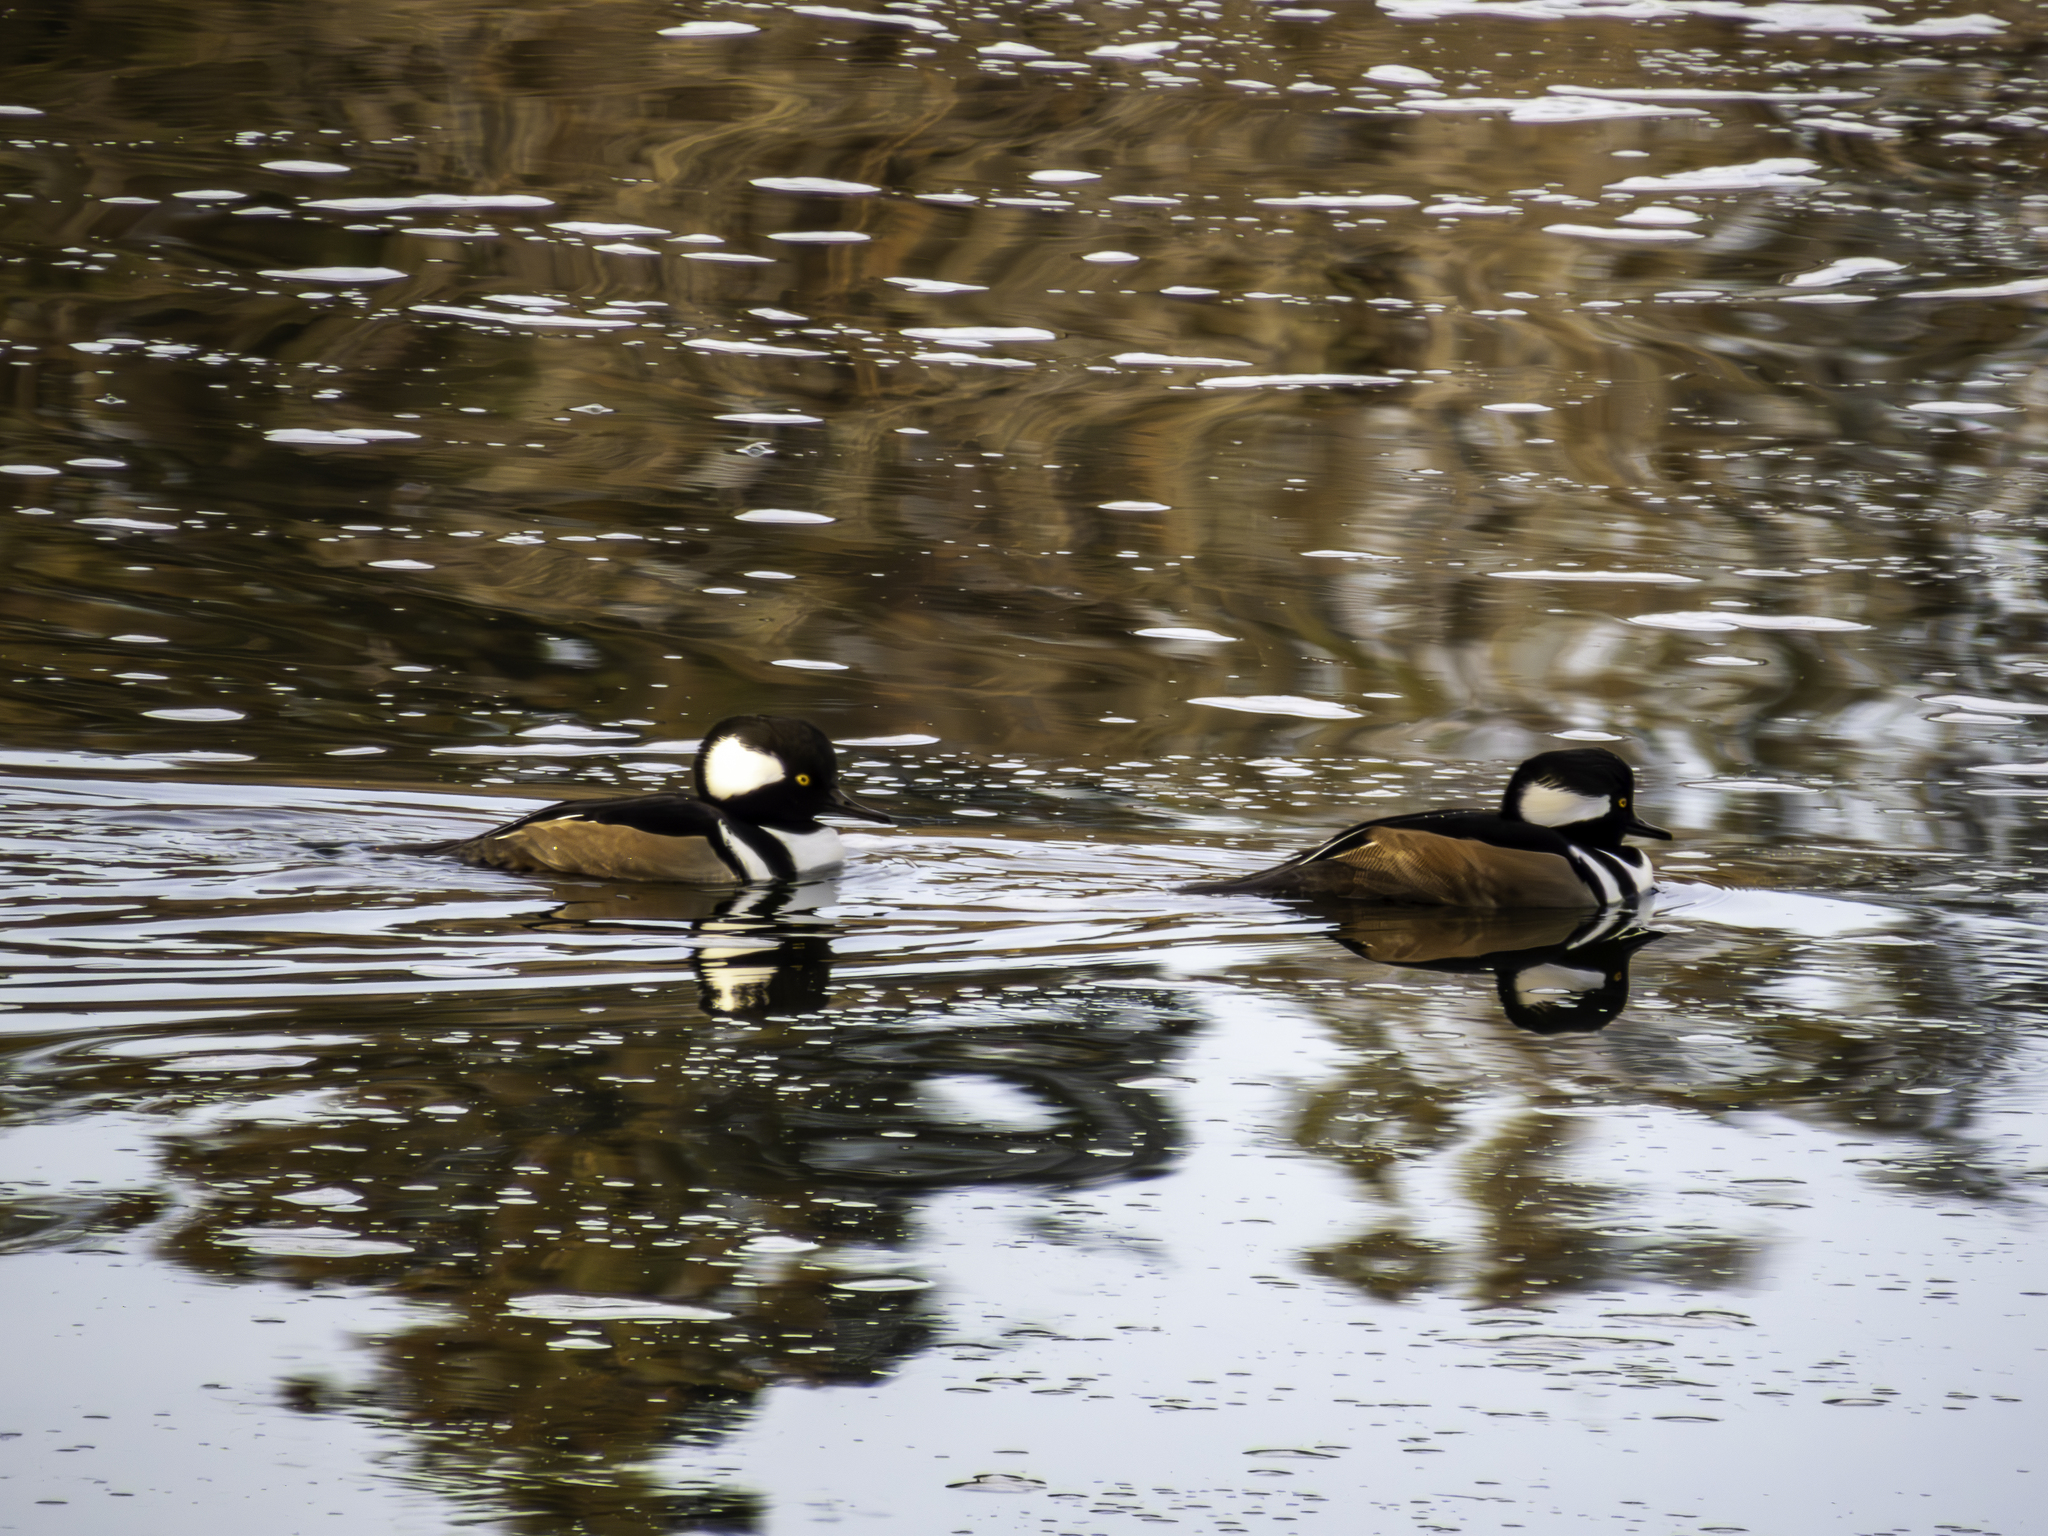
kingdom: Animalia
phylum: Chordata
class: Aves
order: Anseriformes
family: Anatidae
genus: Lophodytes
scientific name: Lophodytes cucullatus
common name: Hooded merganser
